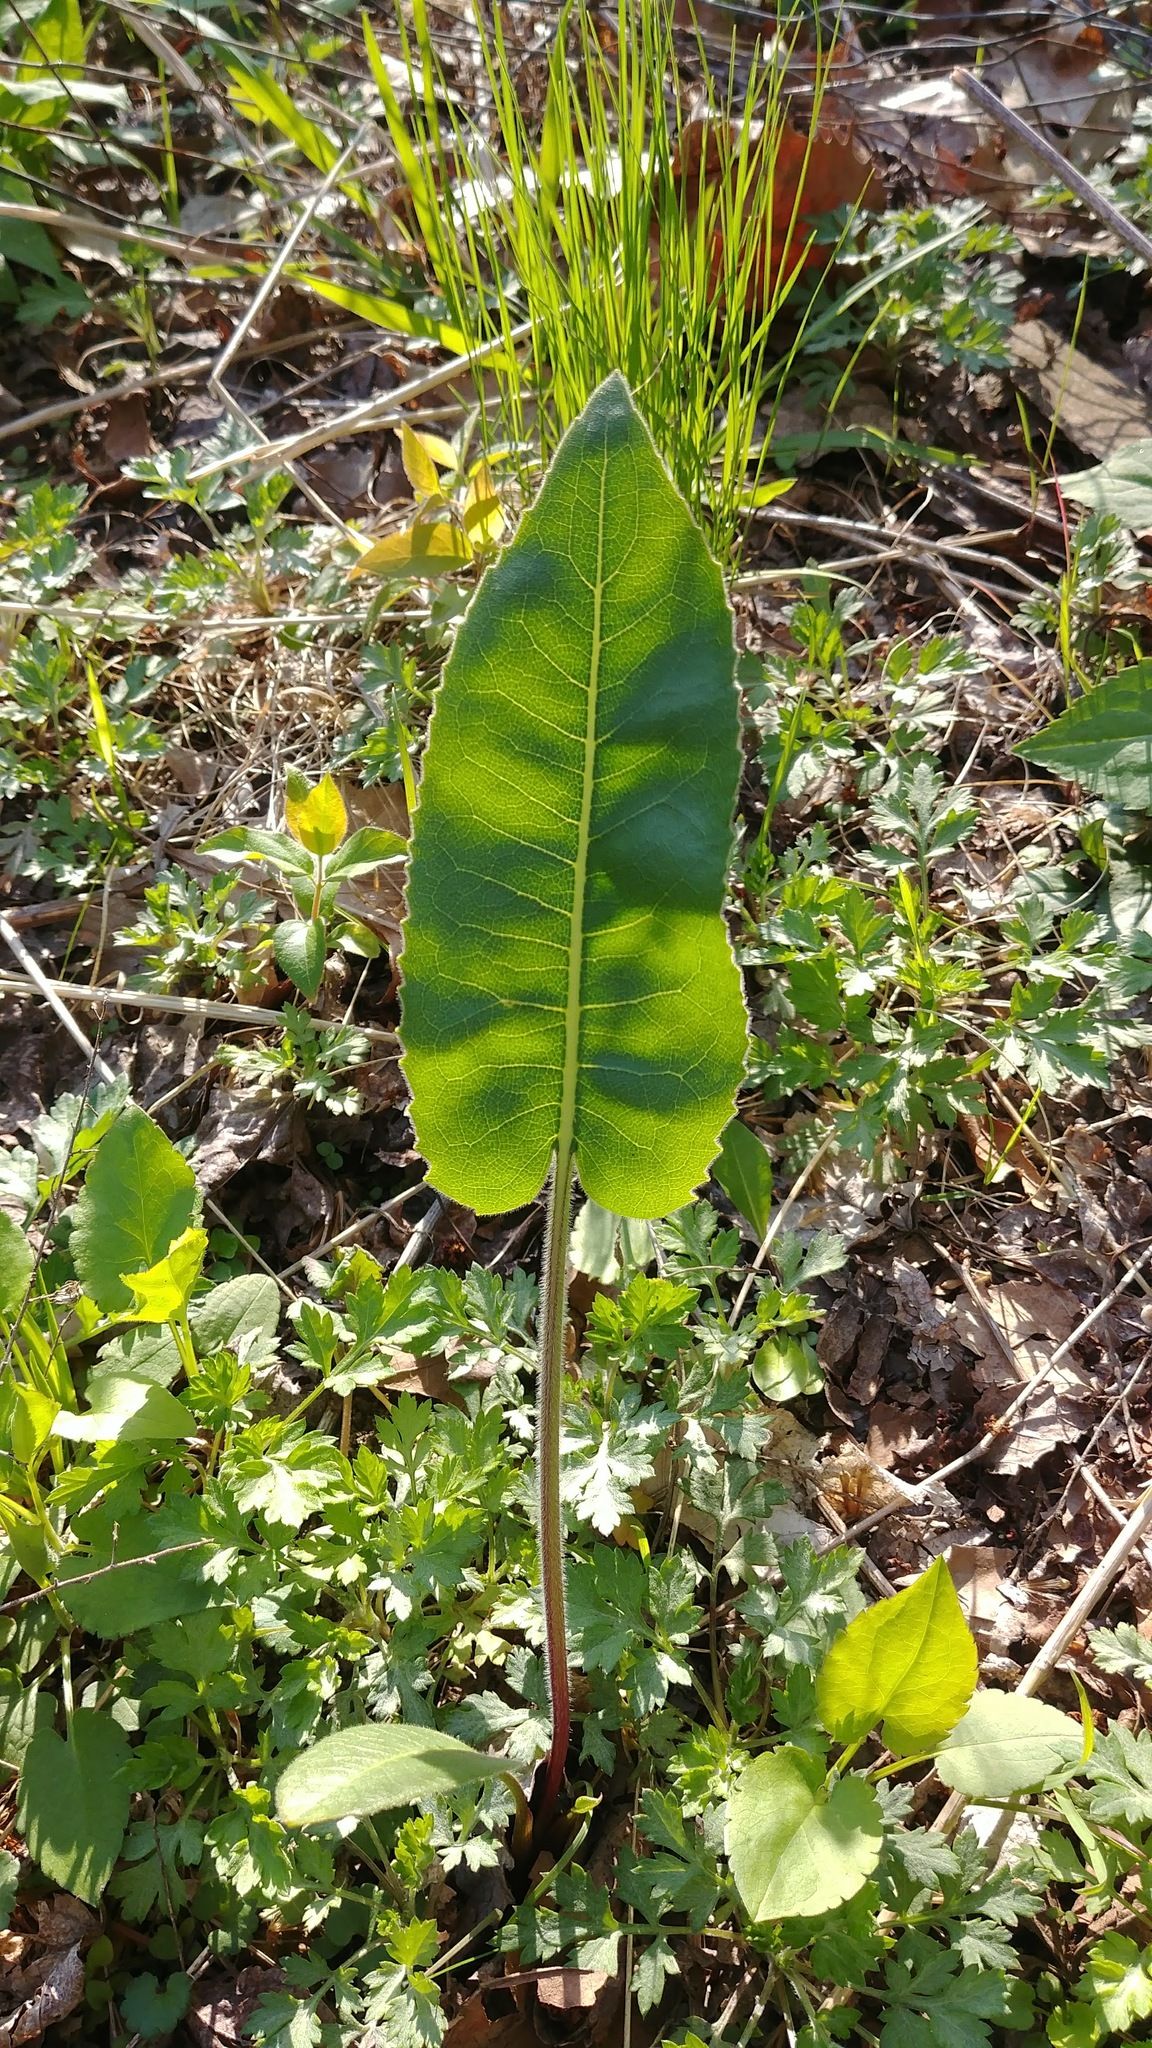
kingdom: Plantae
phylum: Tracheophyta
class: Magnoliopsida
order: Asterales
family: Asteraceae
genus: Silphium
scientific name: Silphium terebinthinaceum
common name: Basal-leaf rosinweed
